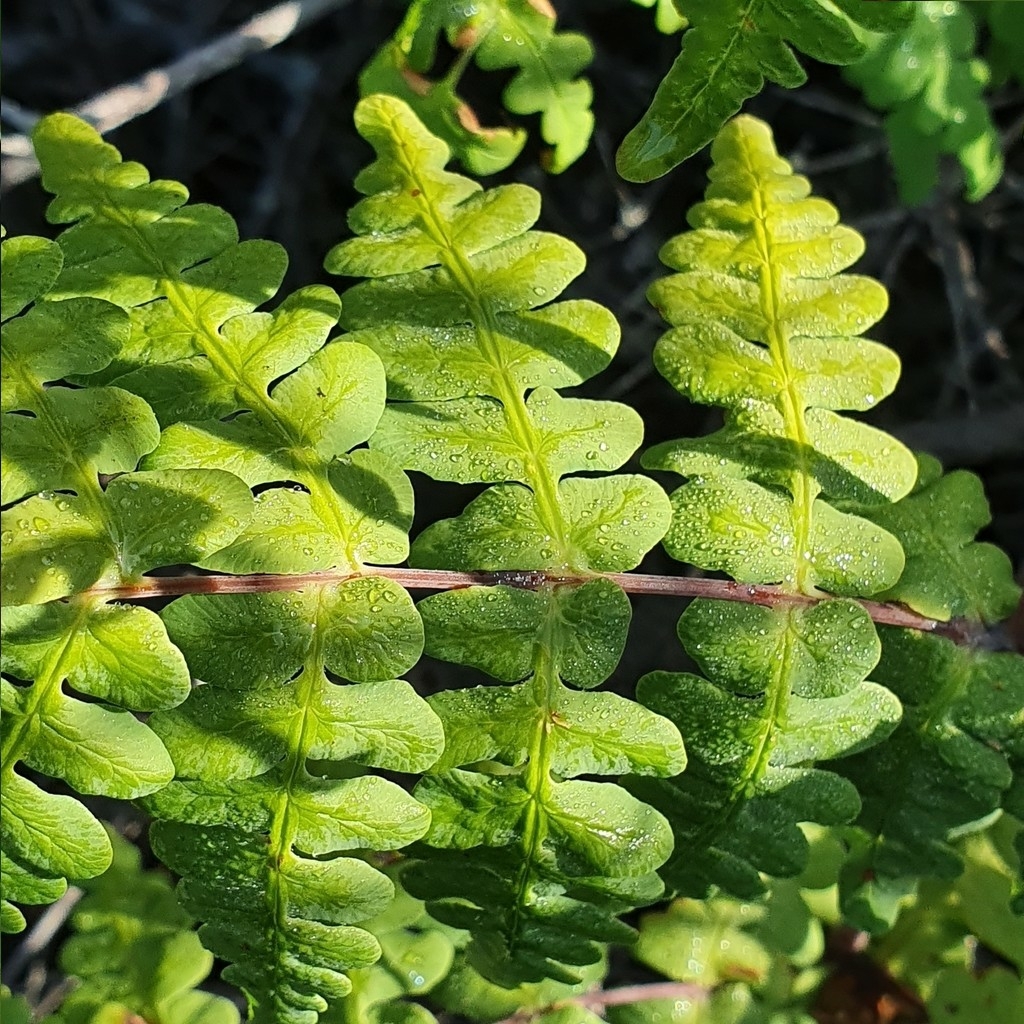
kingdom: Plantae
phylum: Tracheophyta
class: Polypodiopsida
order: Polypodiales
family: Dennstaedtiaceae
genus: Histiopteris
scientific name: Histiopteris incisa
